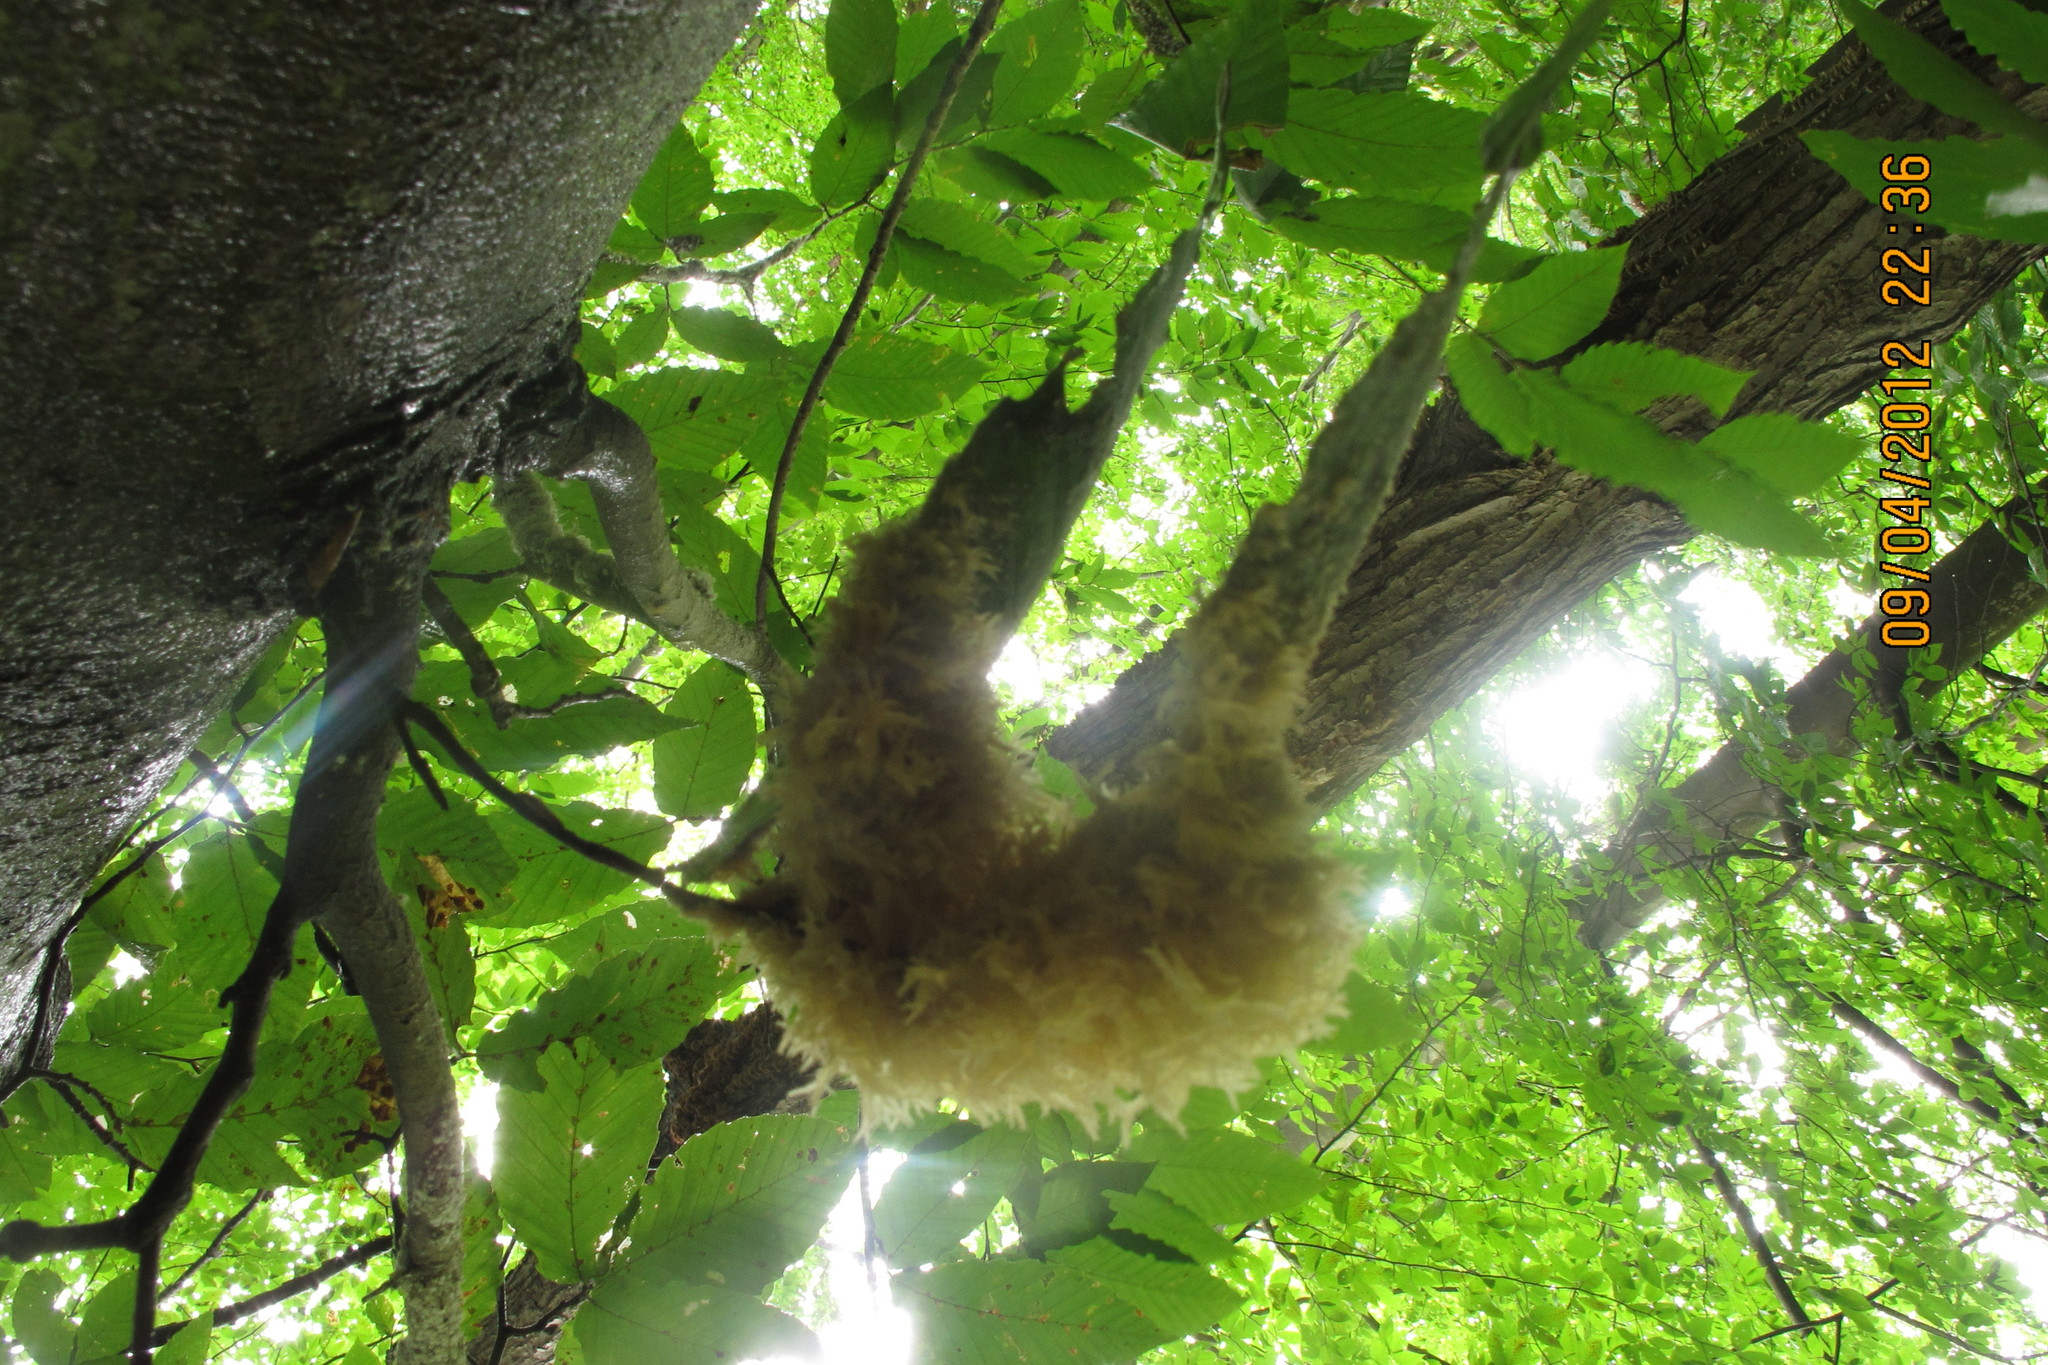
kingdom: Fungi
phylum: Ascomycota
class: Dothideomycetes
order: Capnodiales
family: Capnodiaceae
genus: Scorias
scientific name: Scorias spongiosa
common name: Black sooty mold
